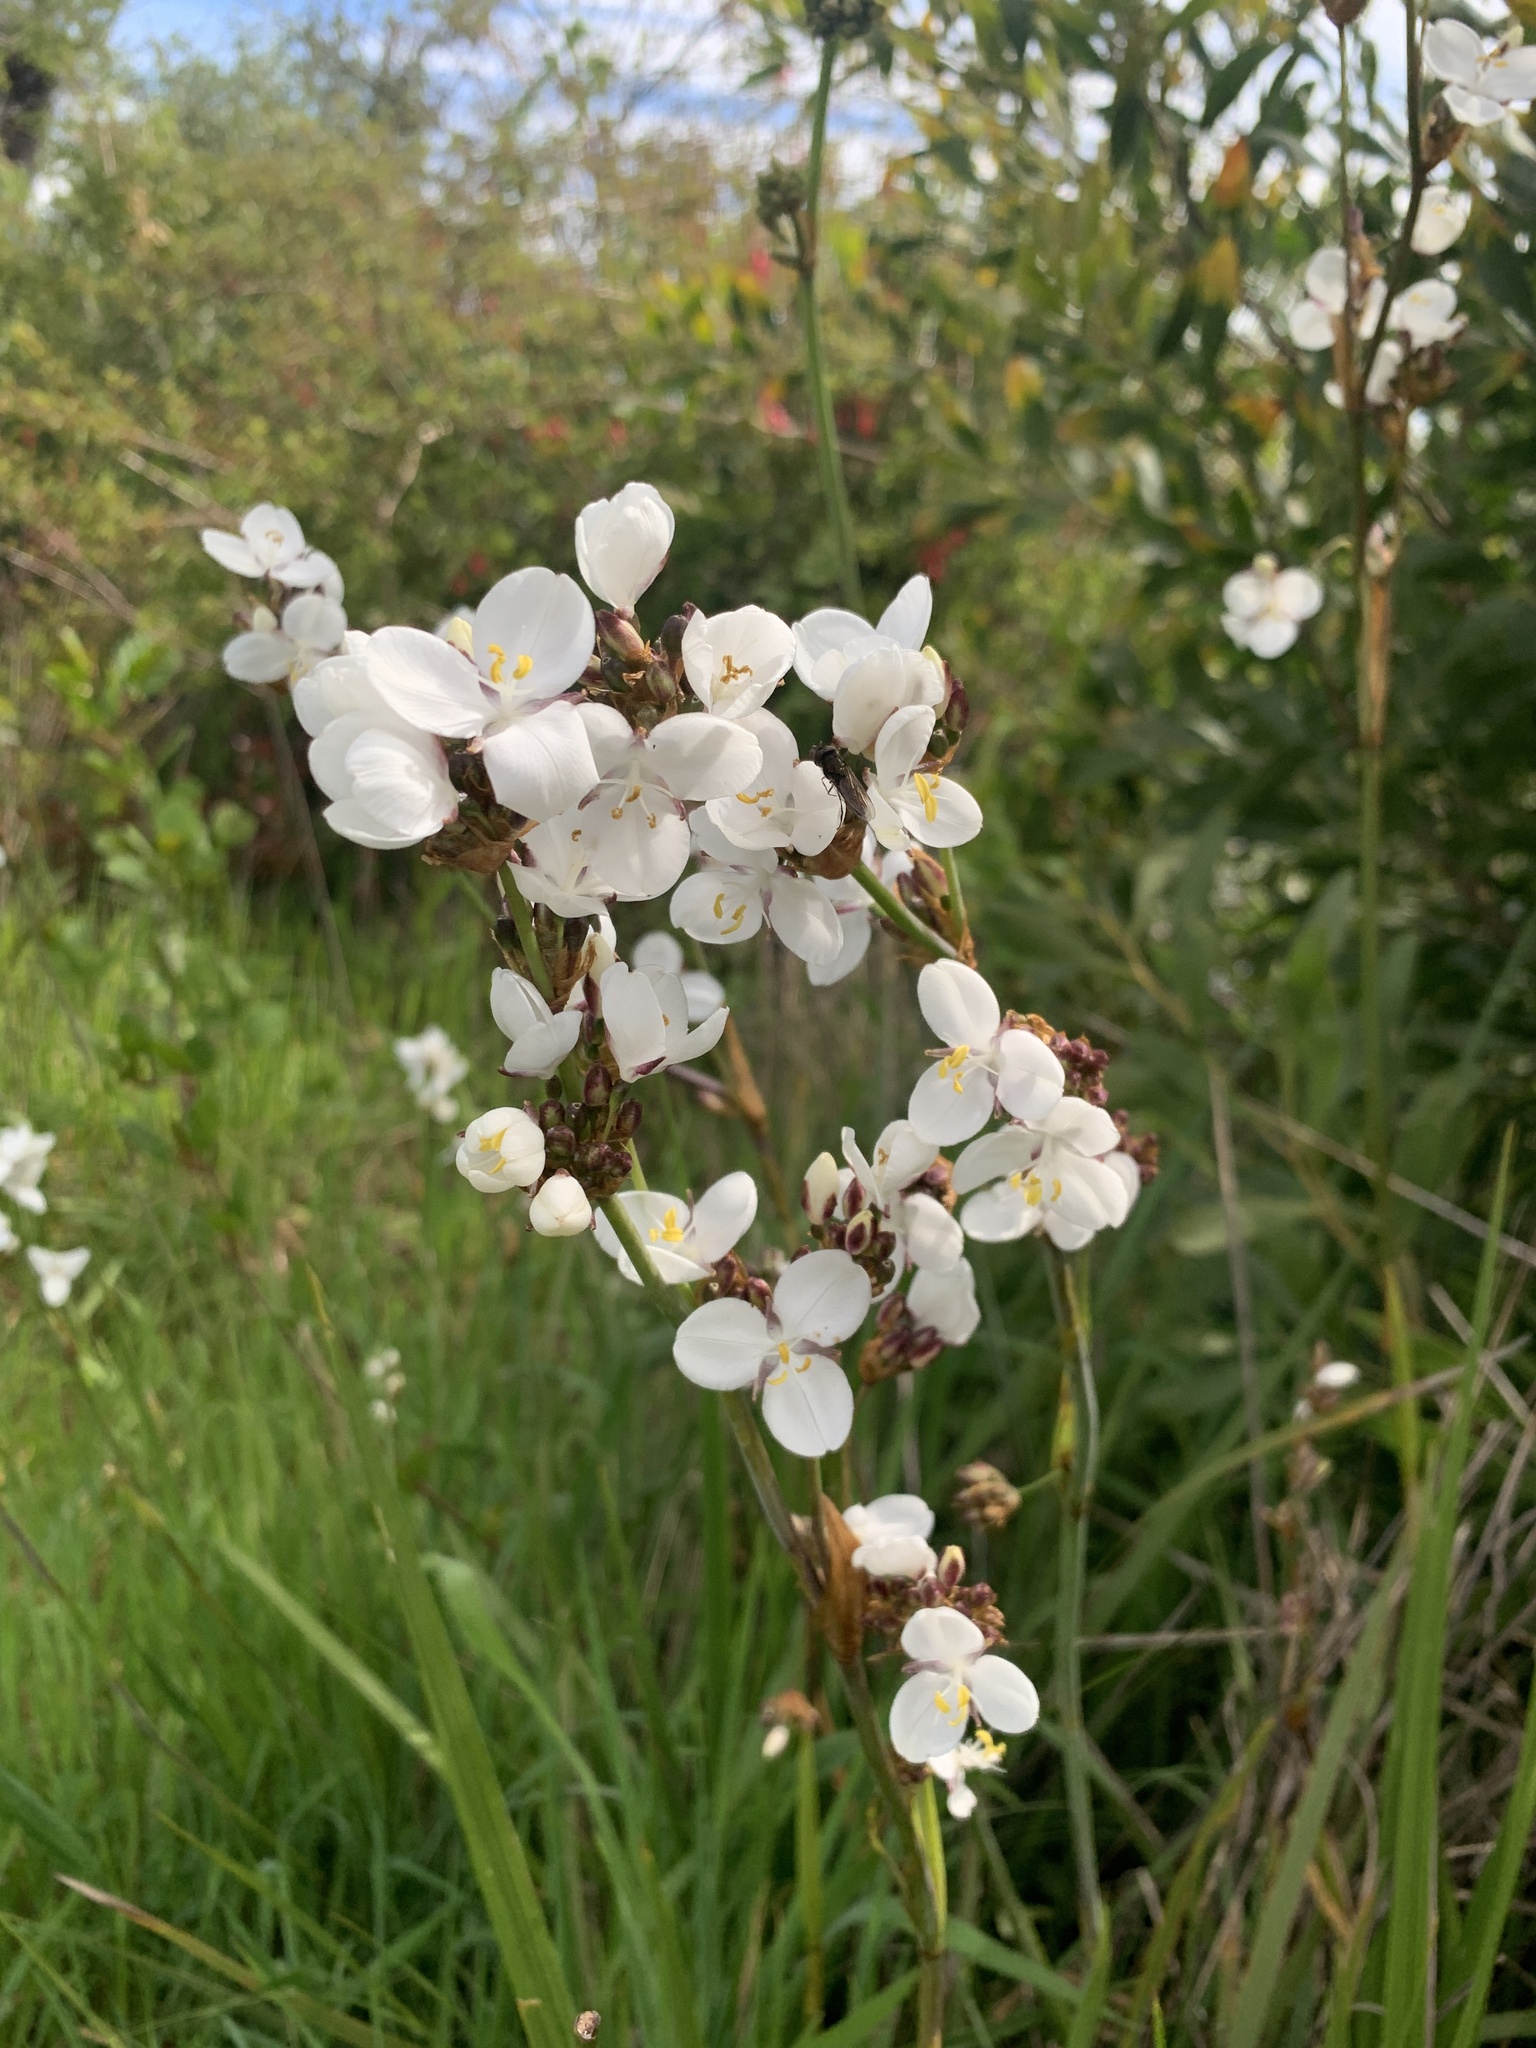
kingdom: Plantae
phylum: Tracheophyta
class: Liliopsida
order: Asparagales
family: Iridaceae
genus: Libertia
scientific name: Libertia chilensis
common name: Satin flower
